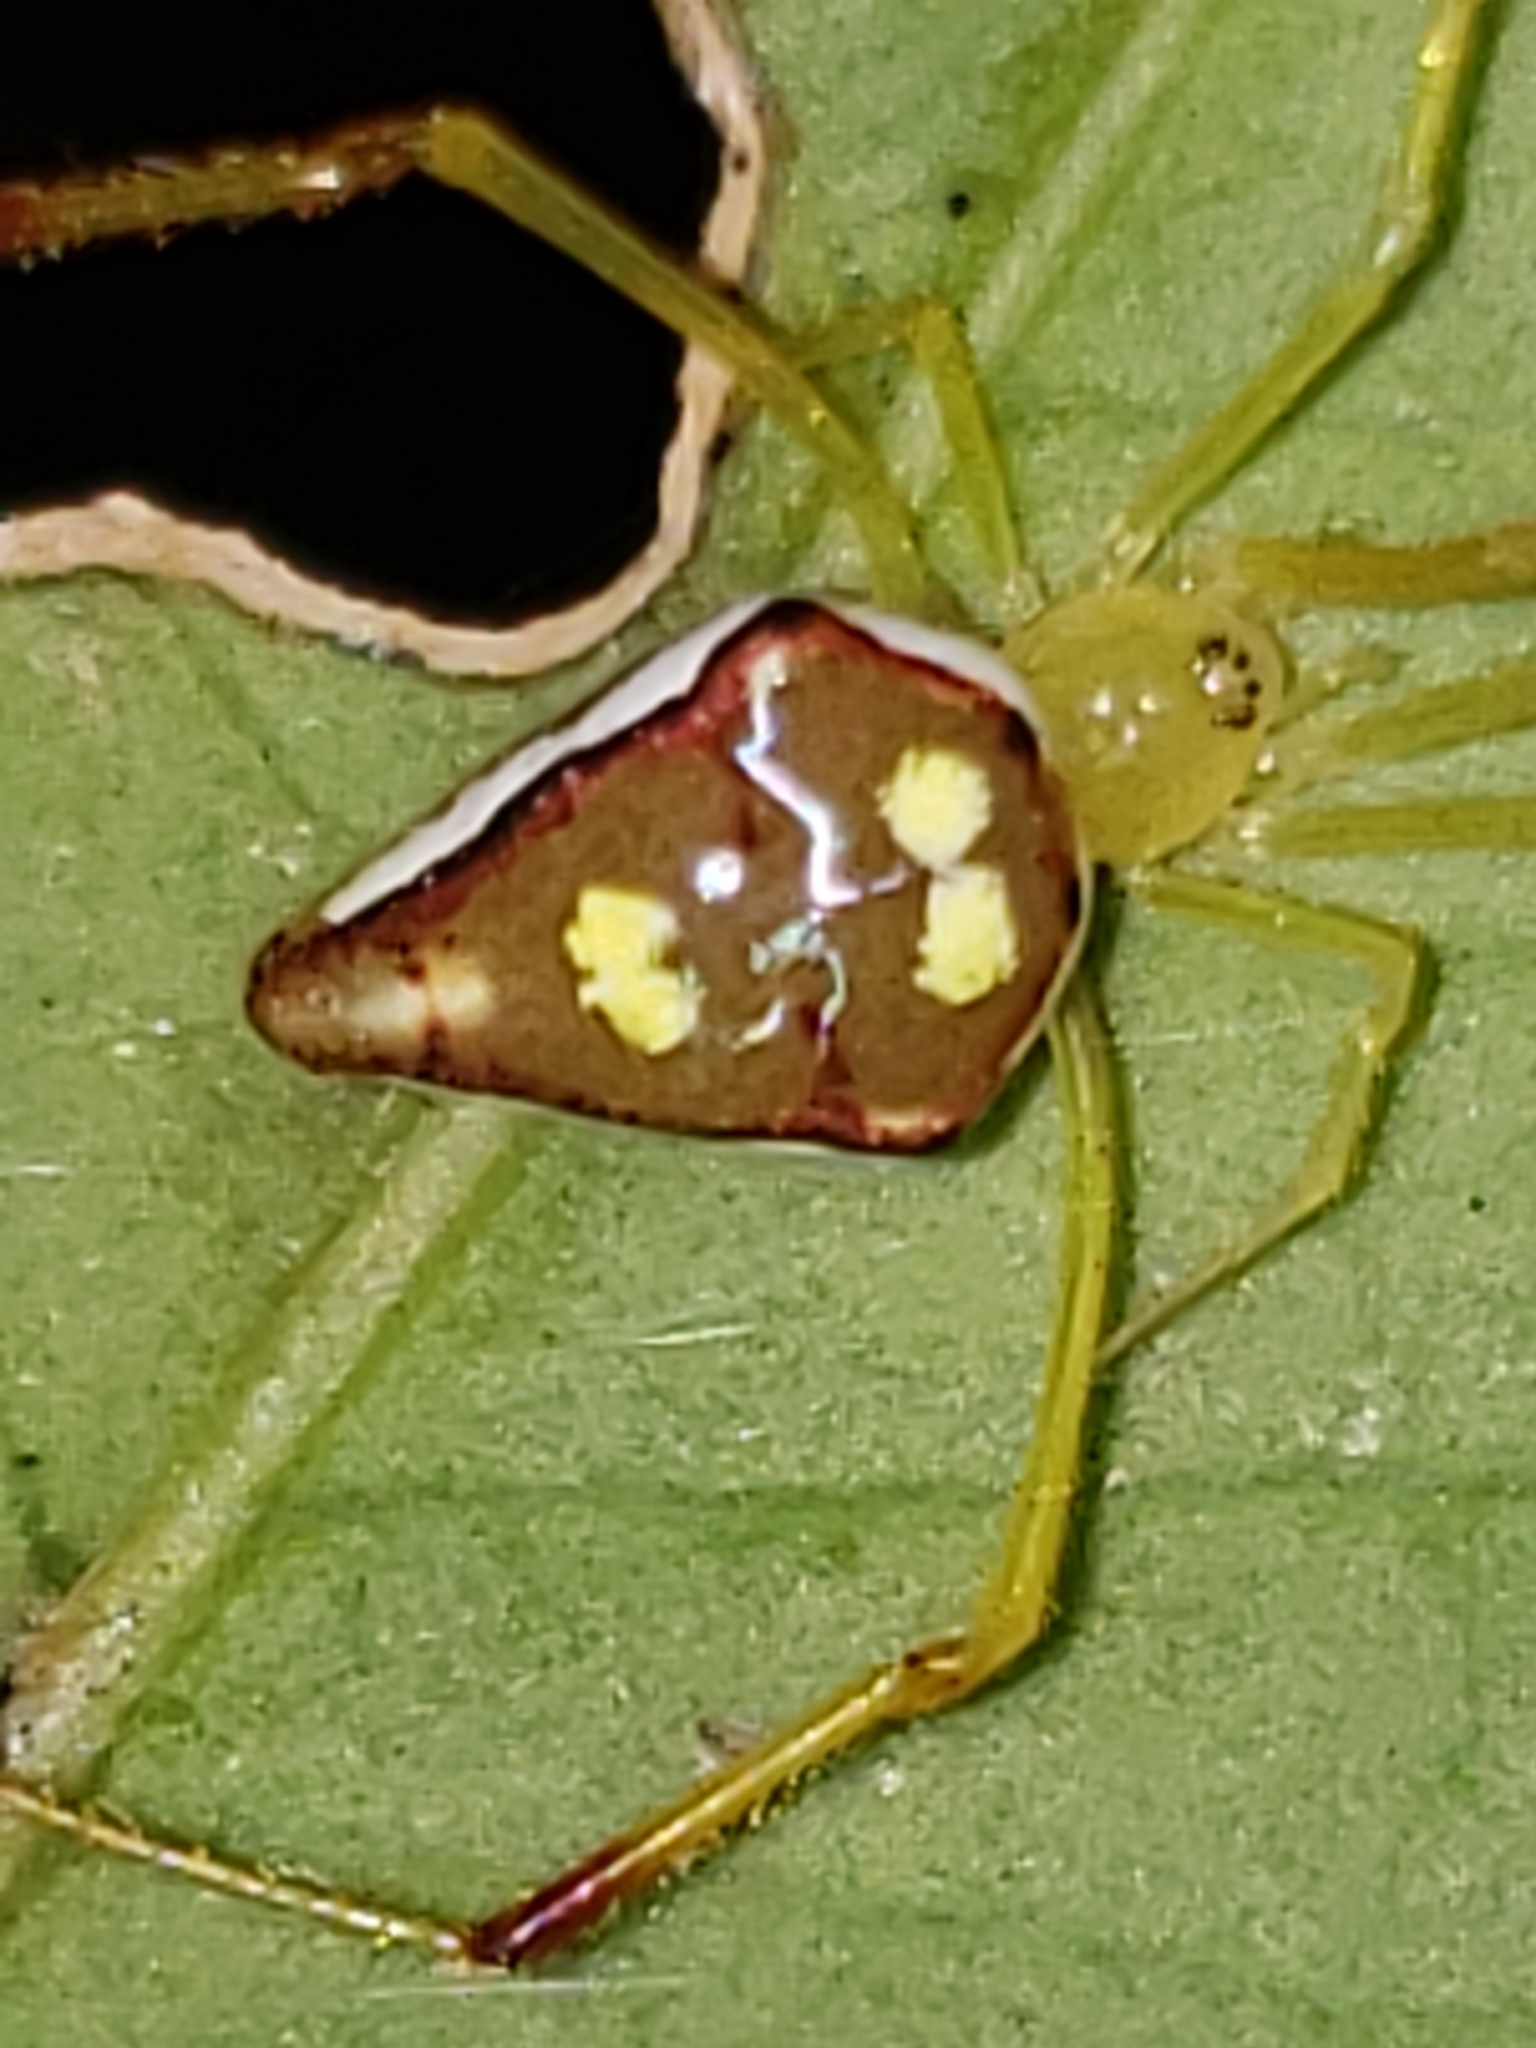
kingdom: Animalia
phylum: Arthropoda
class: Arachnida
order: Araneae
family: Theridiidae
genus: Spintharus
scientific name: Spintharus flavidus
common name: Cobweb spiders
